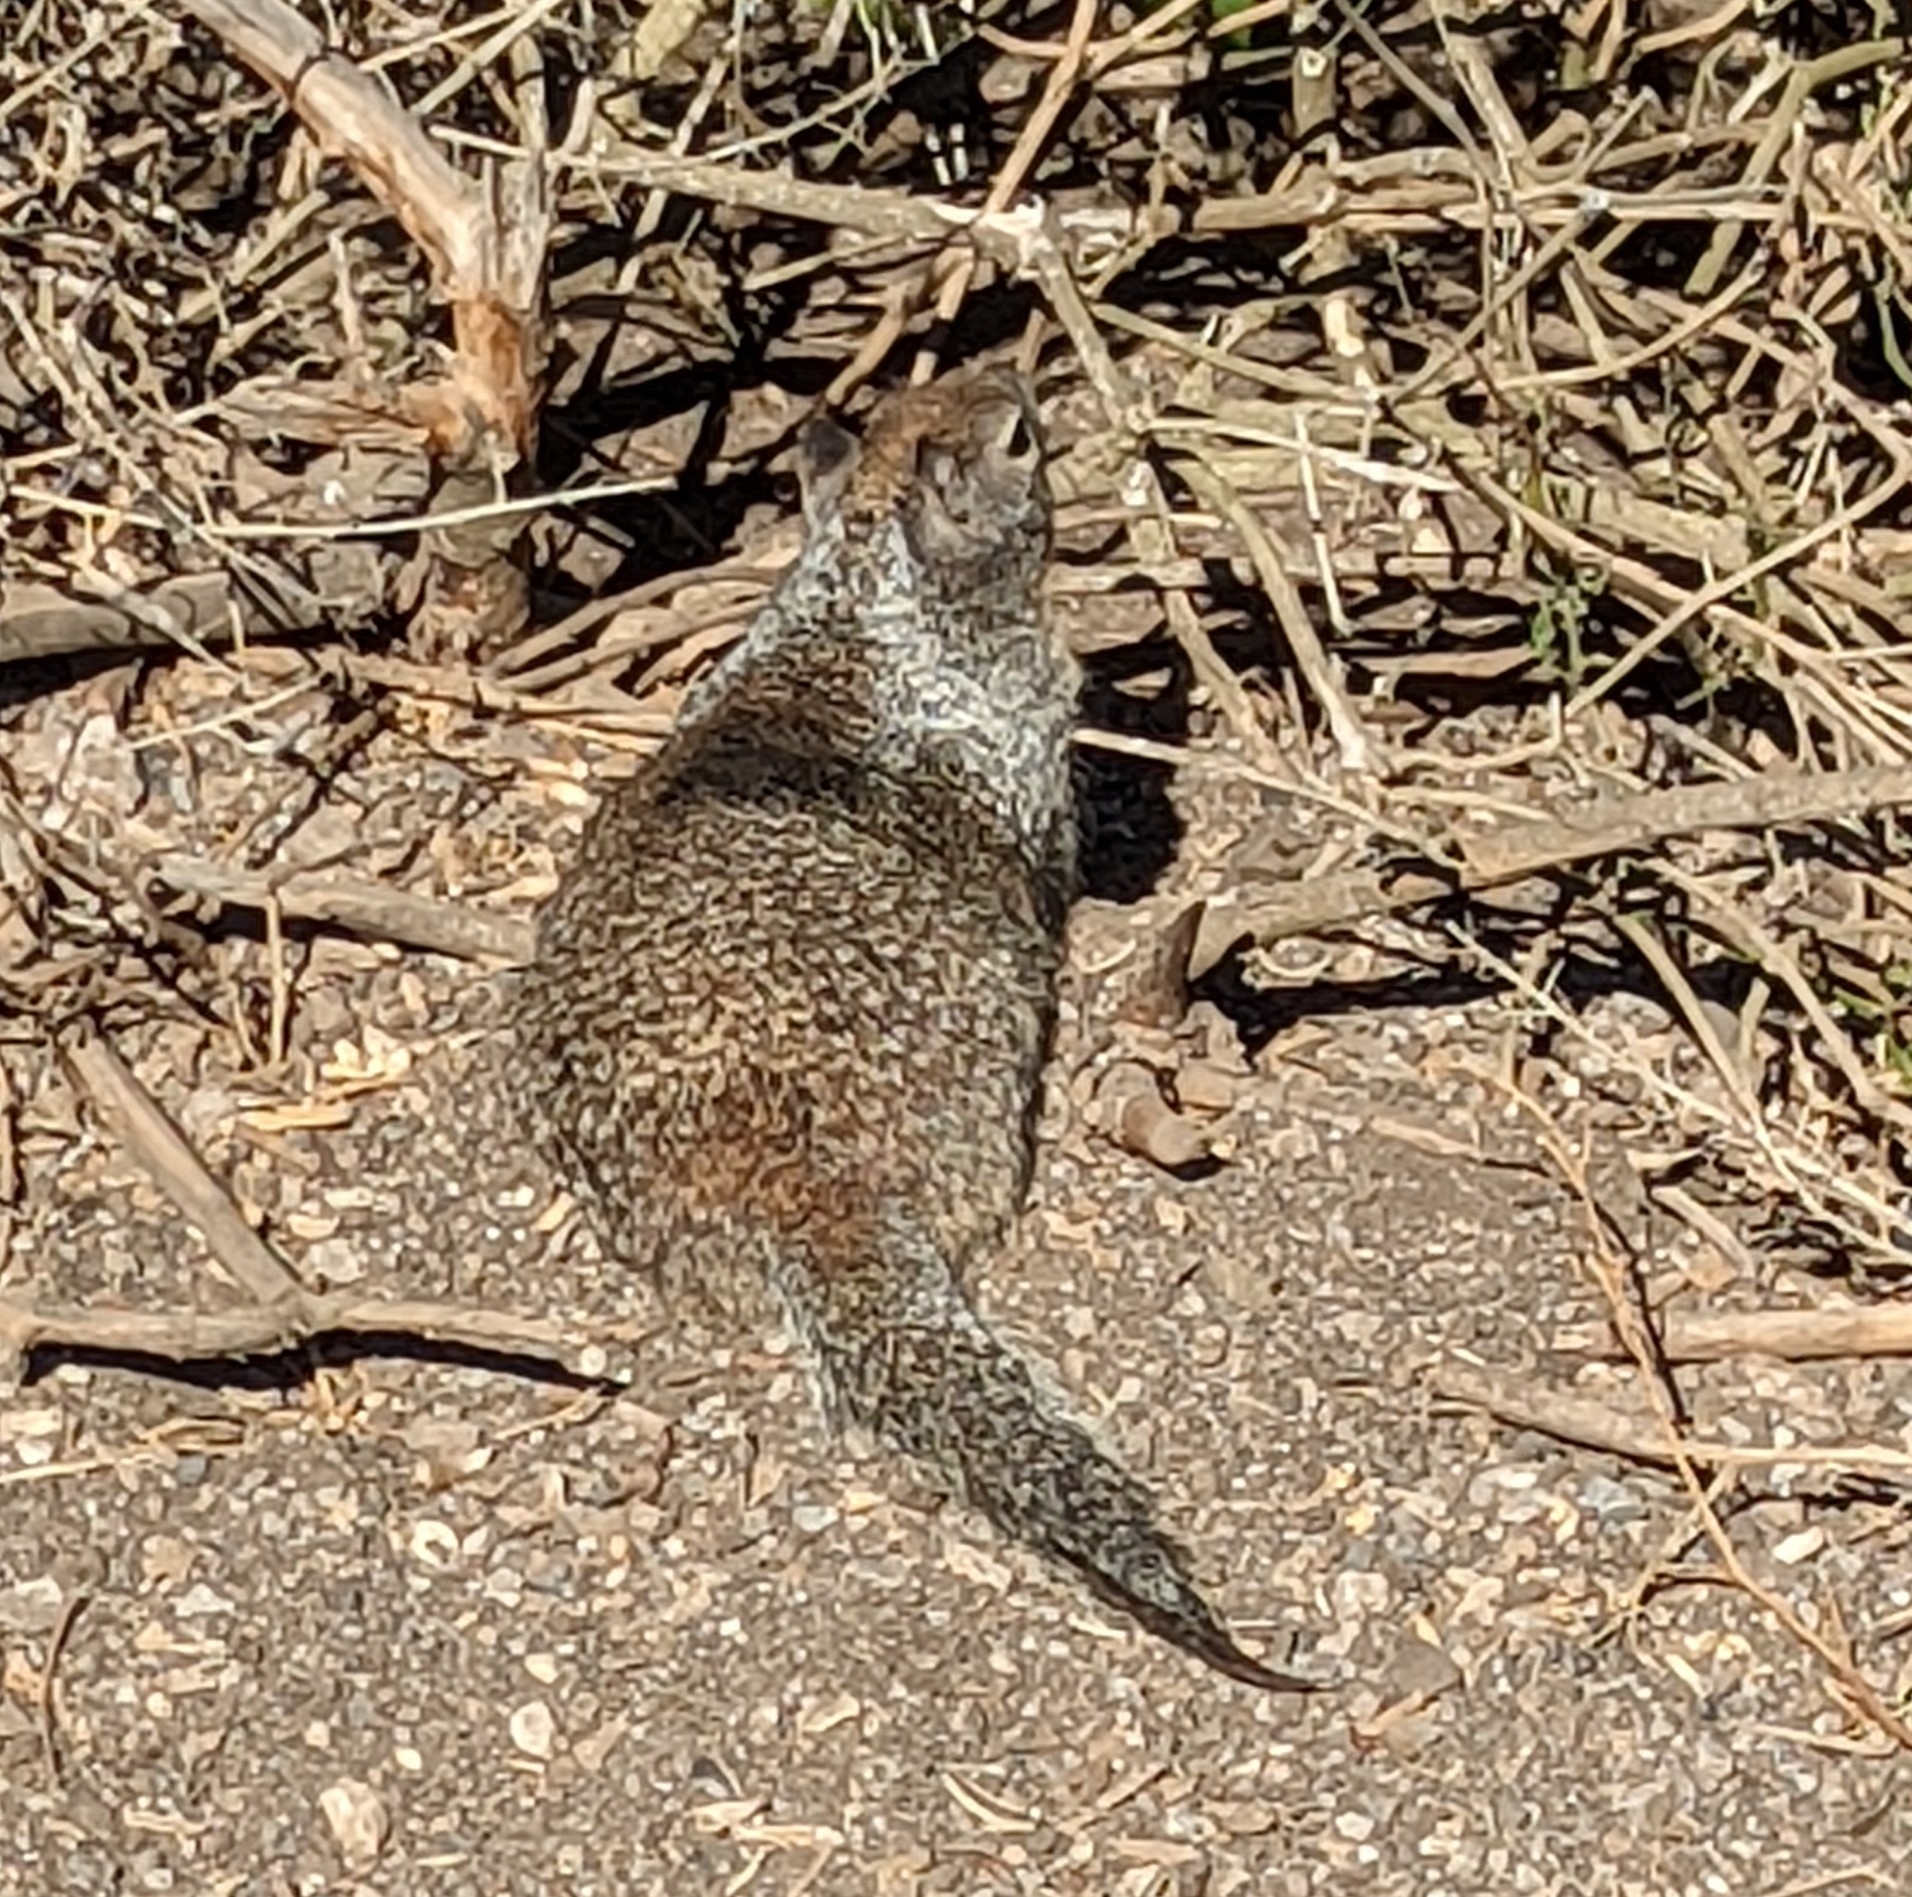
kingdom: Animalia
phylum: Chordata
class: Mammalia
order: Rodentia
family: Sciuridae
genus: Otospermophilus
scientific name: Otospermophilus beecheyi
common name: California ground squirrel
